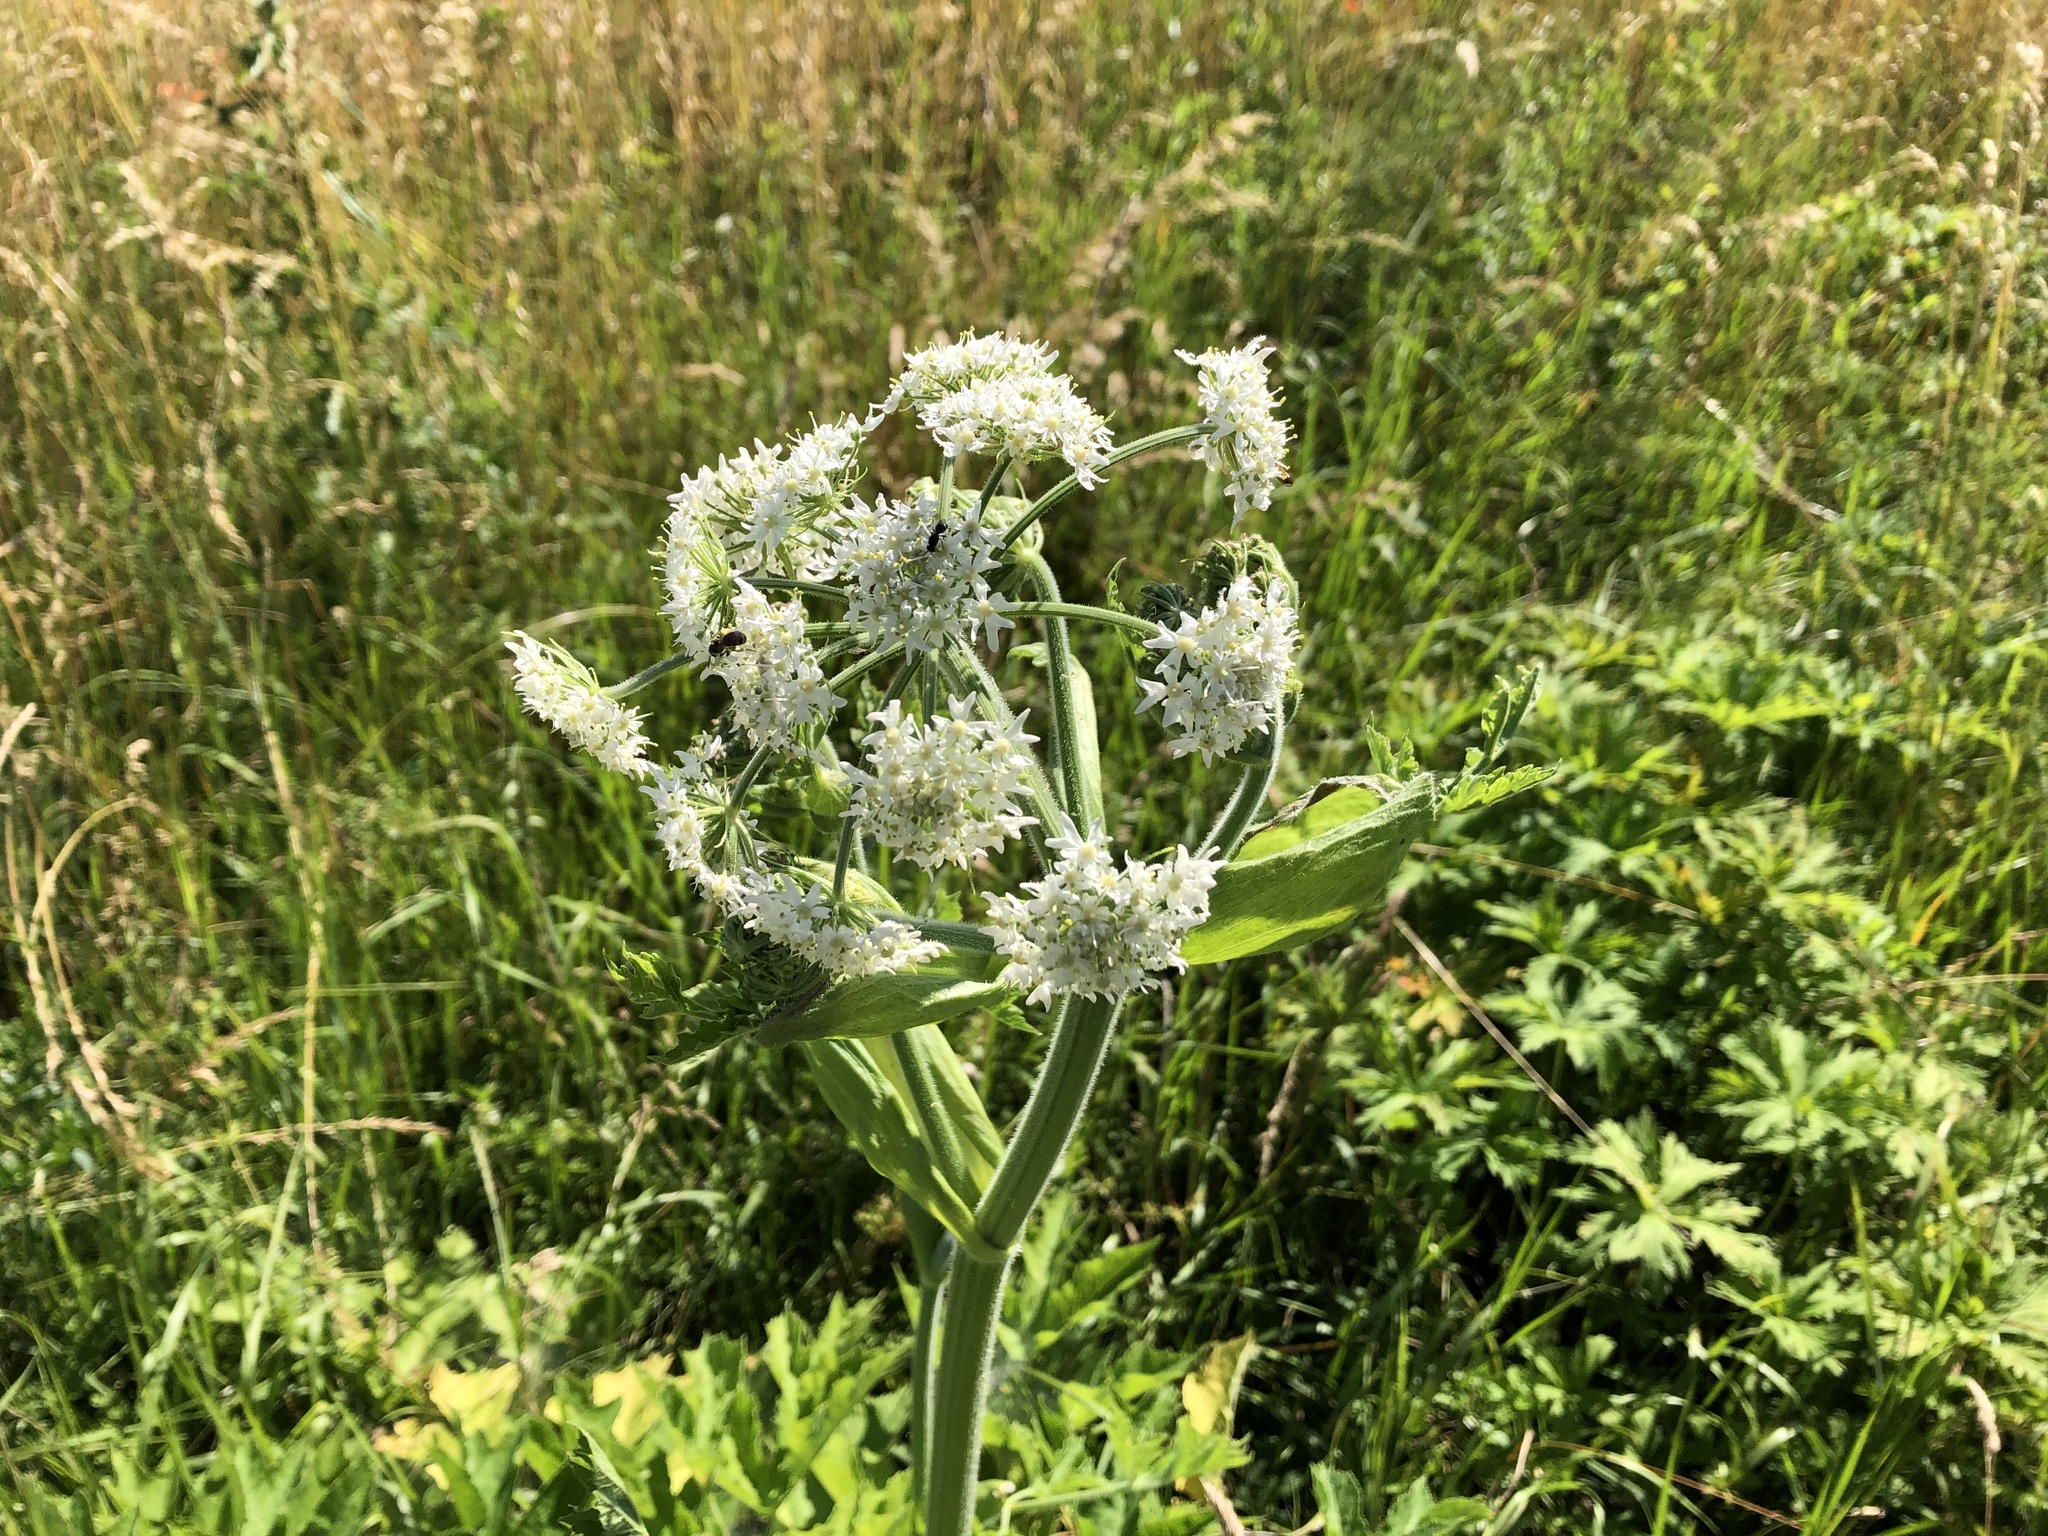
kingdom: Plantae
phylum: Tracheophyta
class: Magnoliopsida
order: Apiales
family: Apiaceae
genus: Heracleum
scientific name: Heracleum sphondylium
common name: Hogweed
